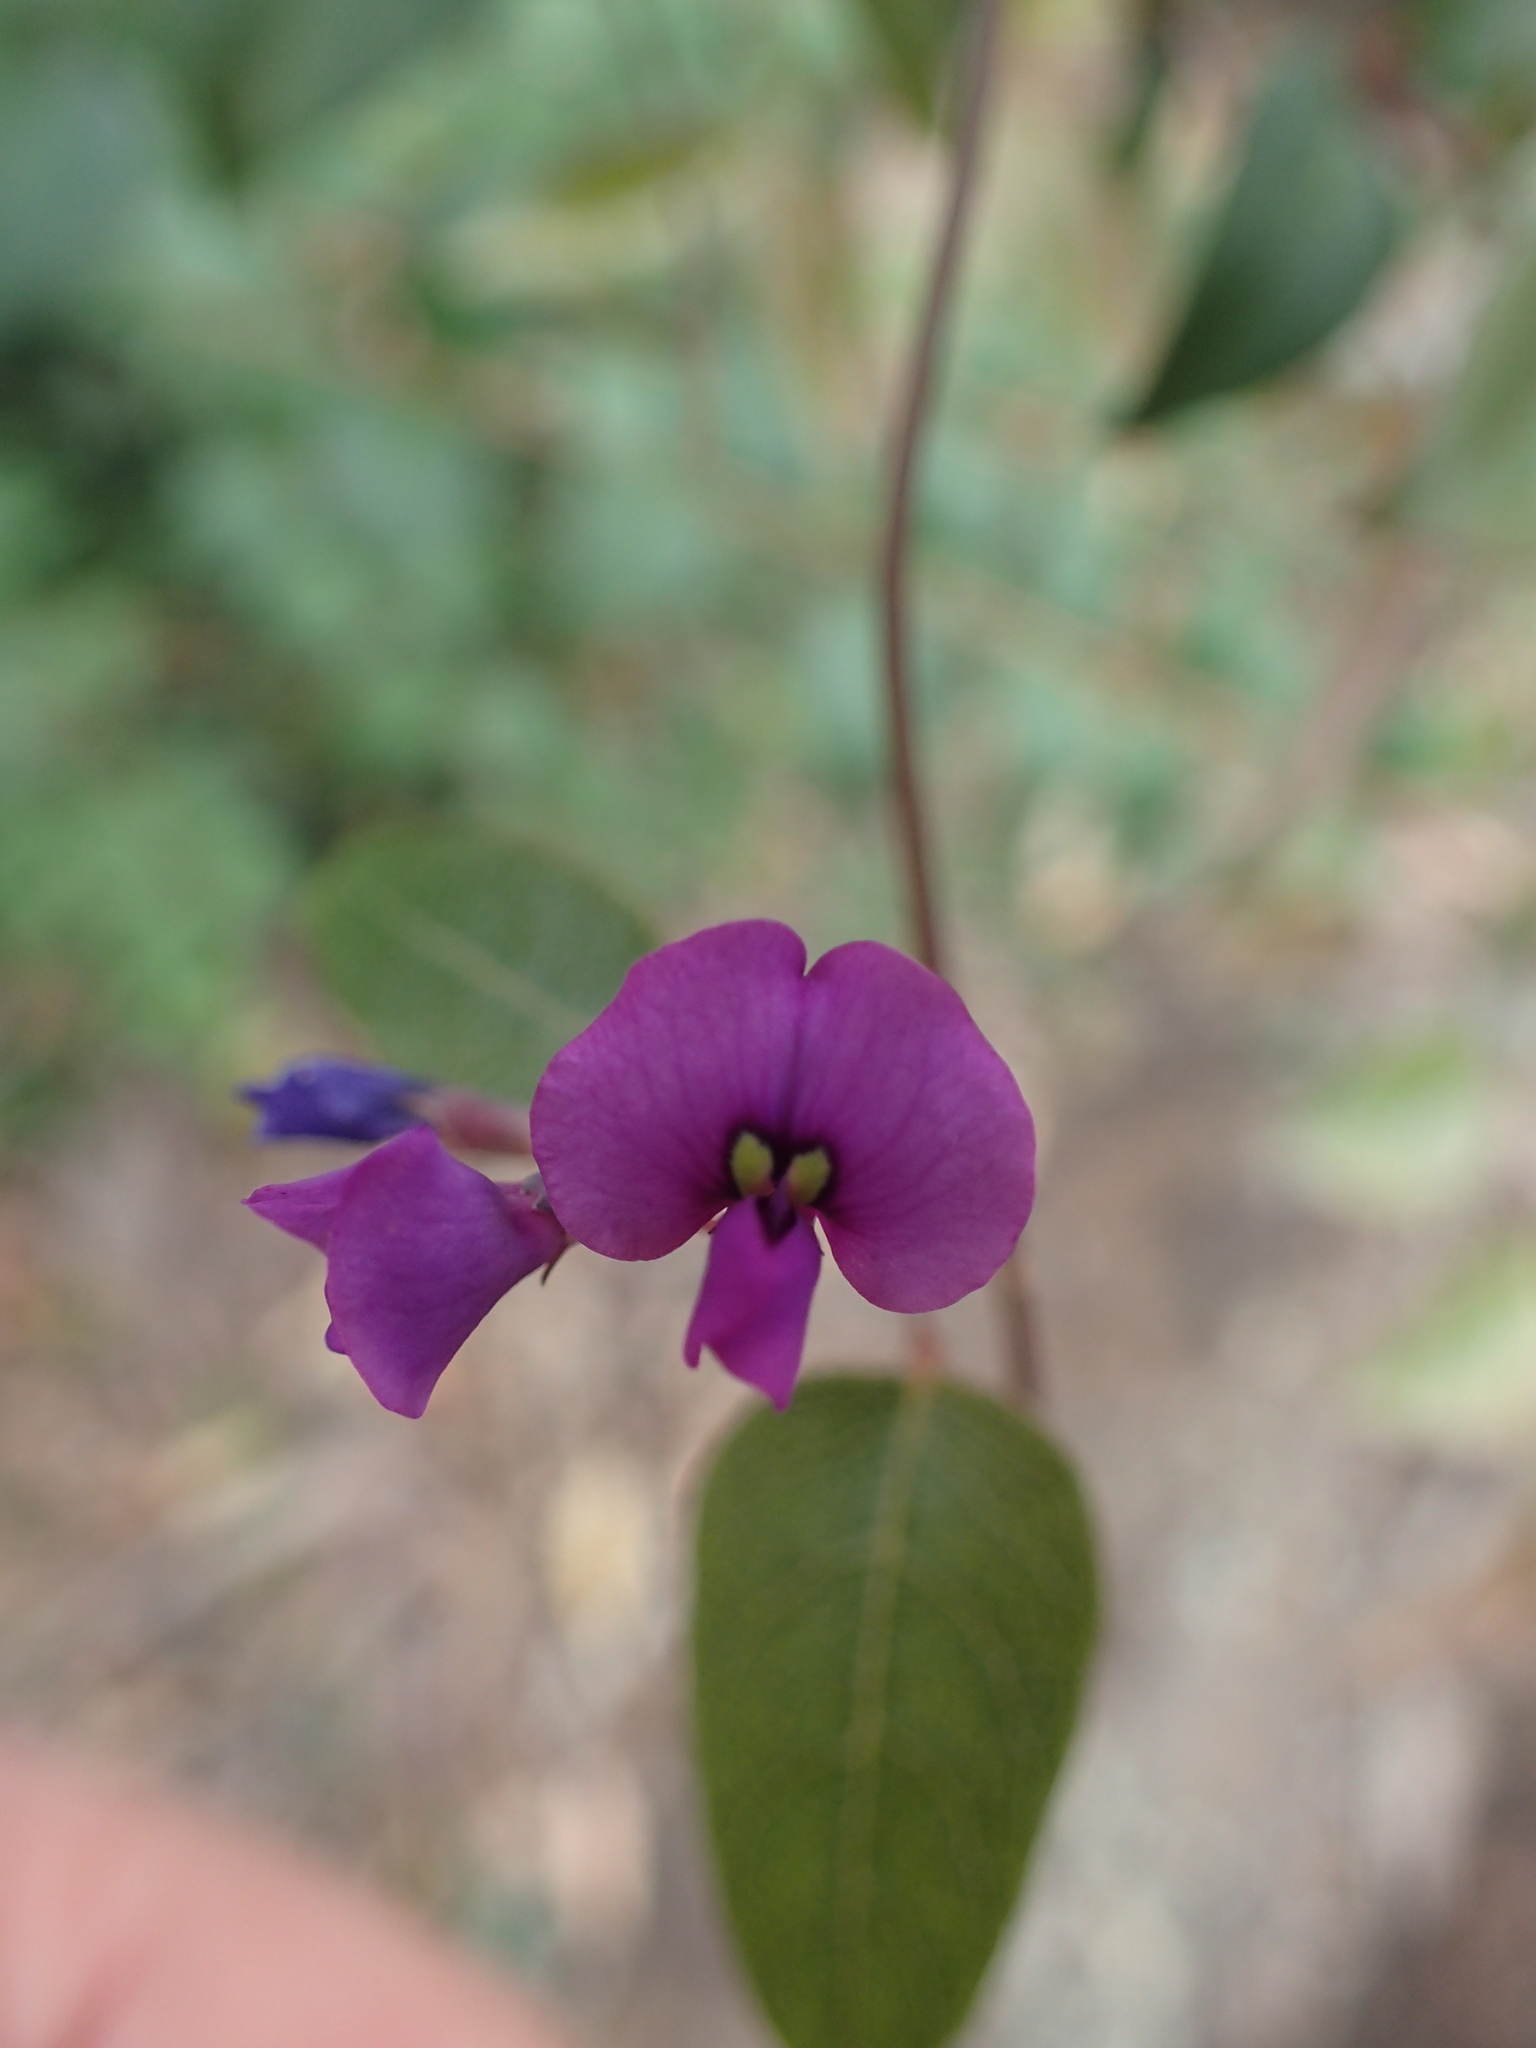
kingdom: Plantae
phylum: Tracheophyta
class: Magnoliopsida
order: Fabales
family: Fabaceae
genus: Hardenbergia
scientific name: Hardenbergia violacea
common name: Coral-pea
